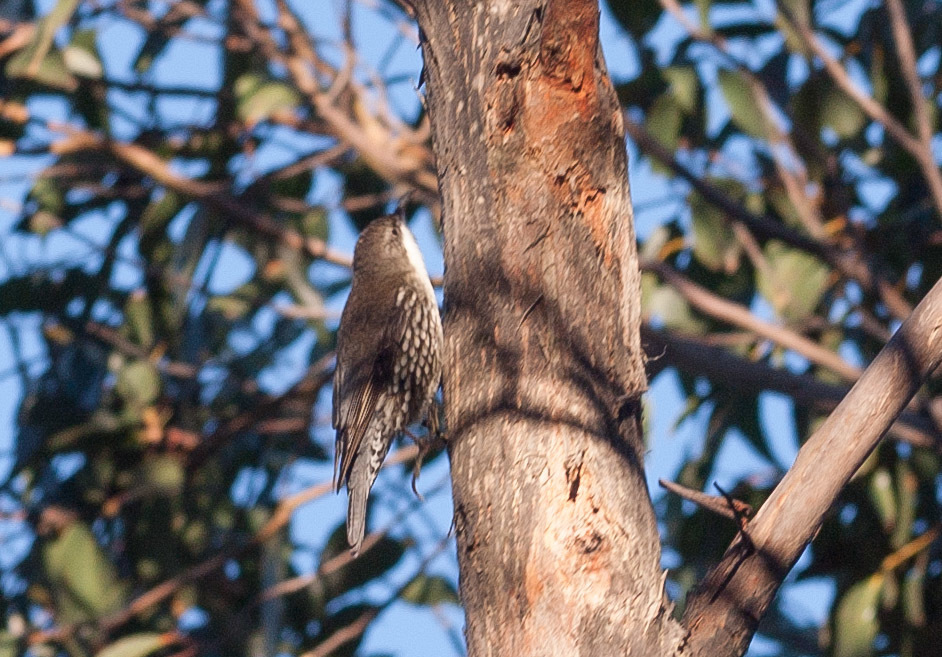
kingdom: Animalia
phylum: Chordata
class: Aves
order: Passeriformes
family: Climacteridae
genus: Cormobates
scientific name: Cormobates leucophaea
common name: White-throated treecreeper
